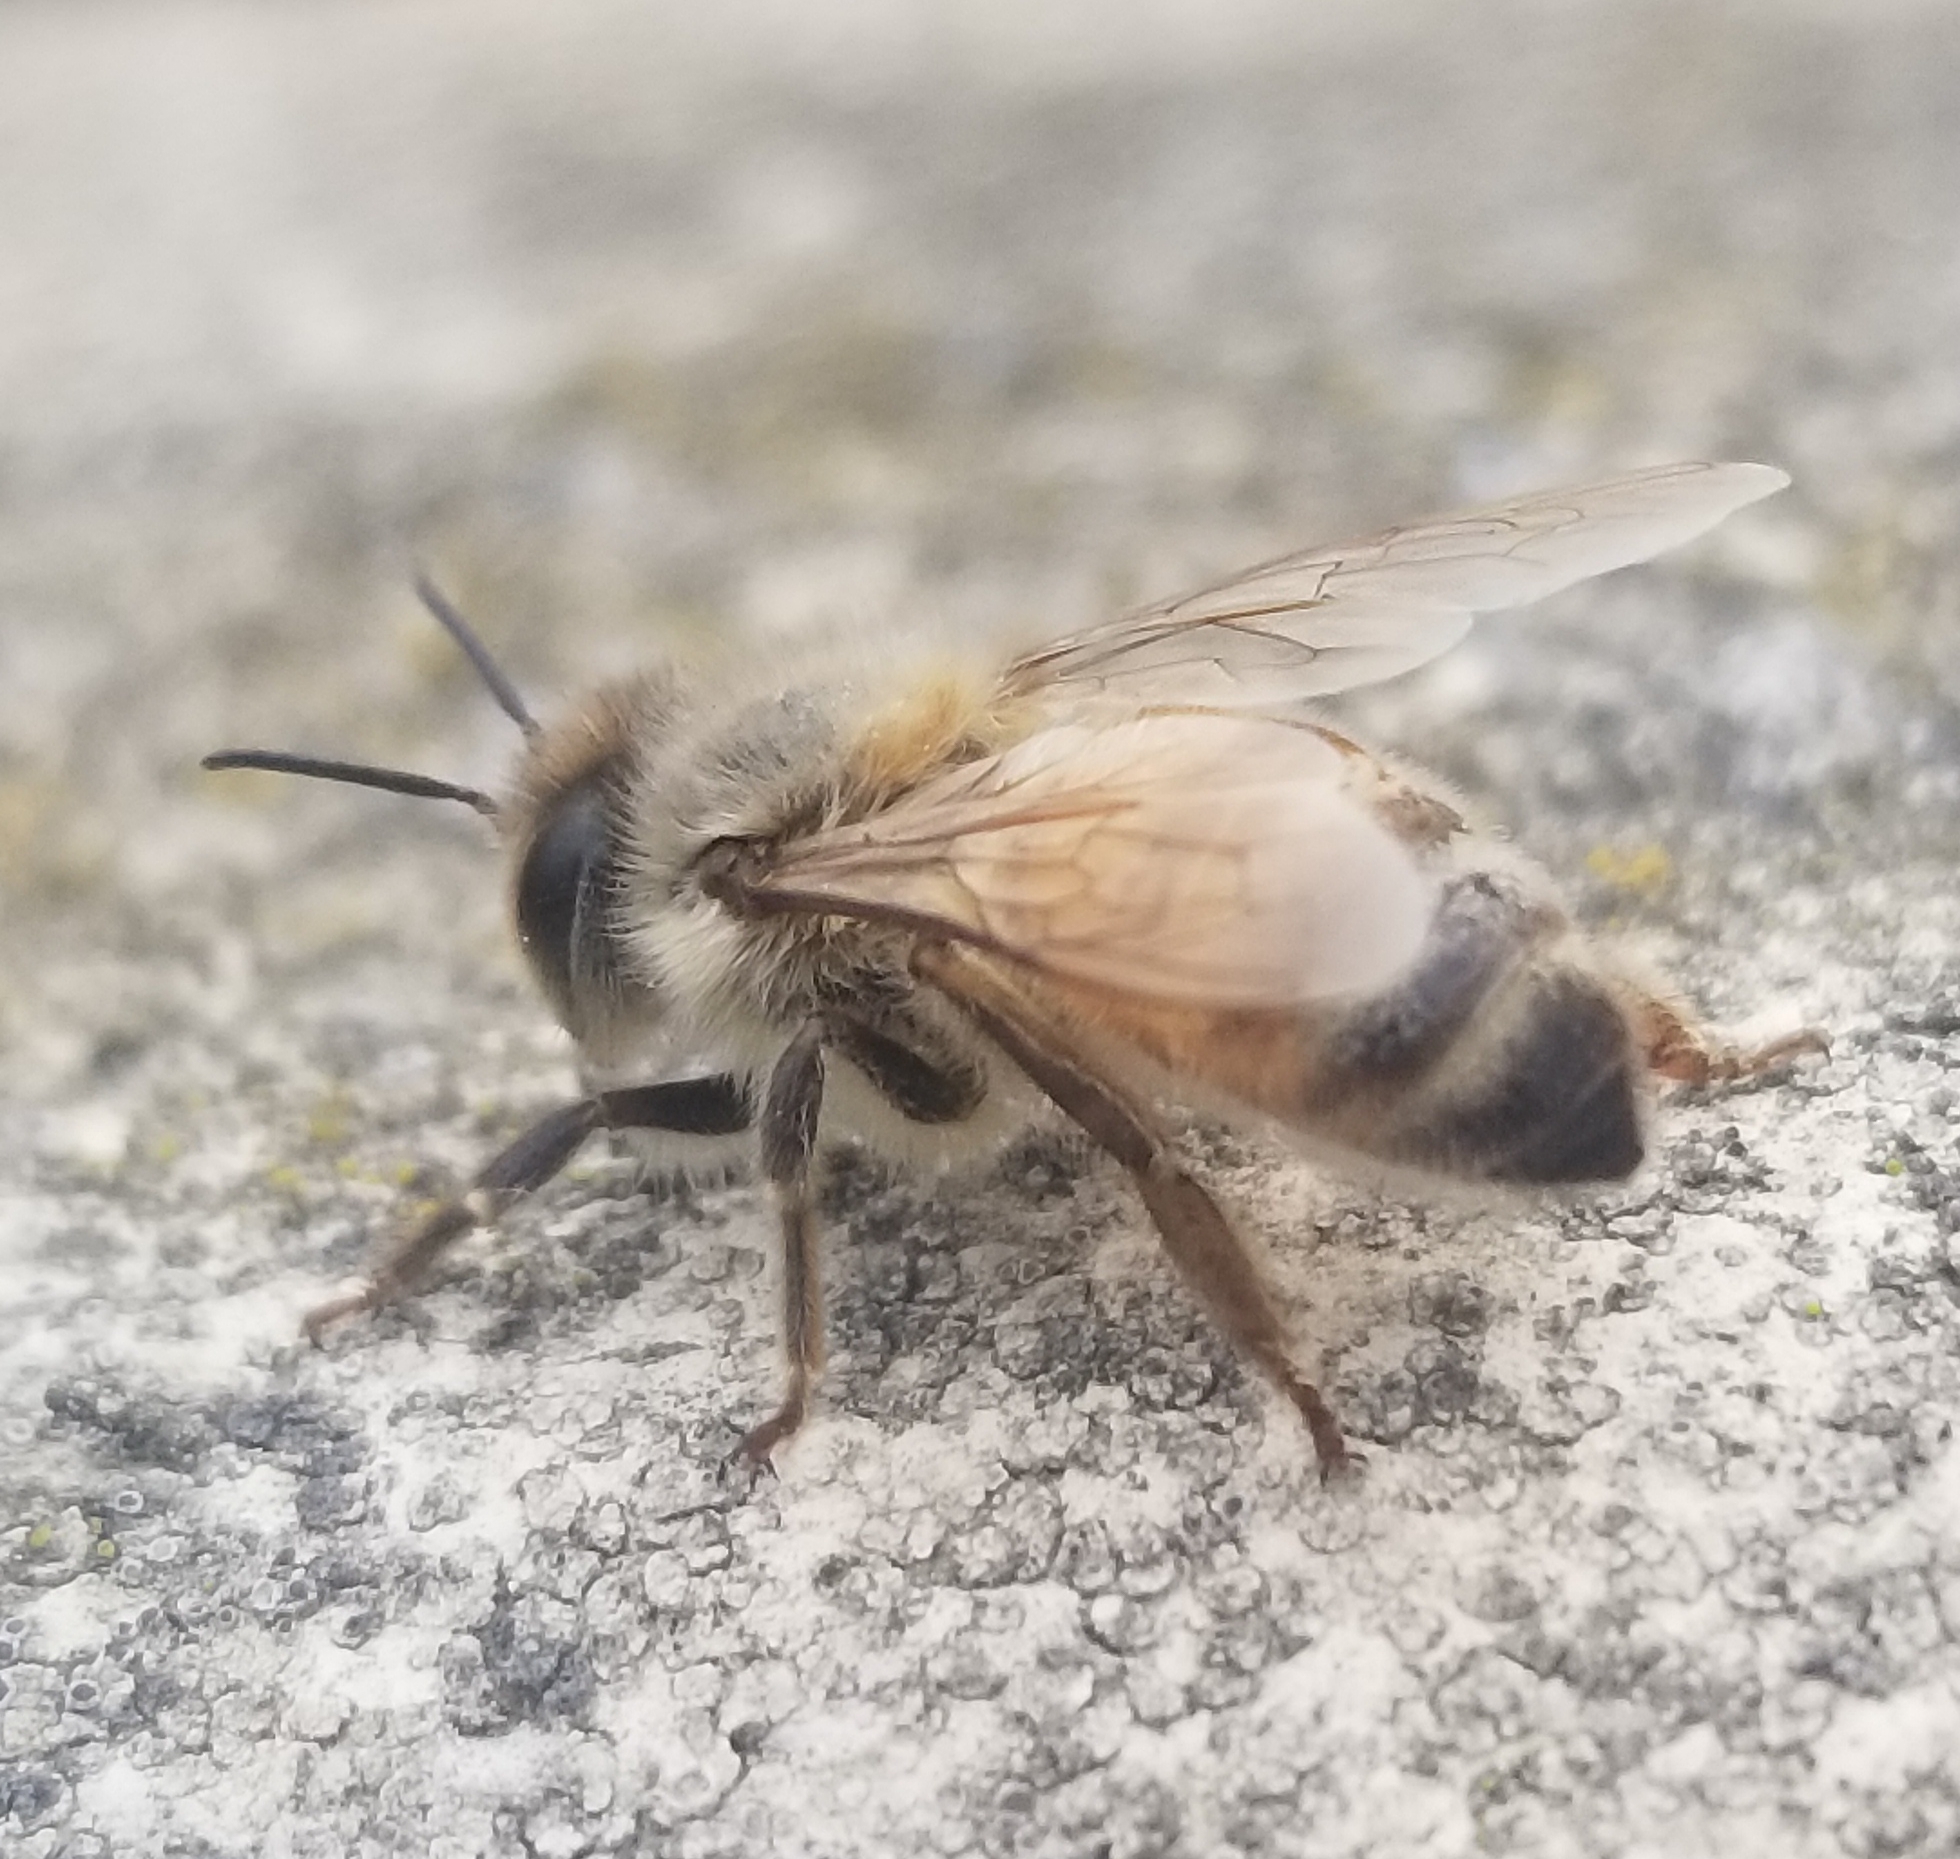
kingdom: Animalia
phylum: Arthropoda
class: Insecta
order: Hymenoptera
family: Apidae
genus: Apis
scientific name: Apis mellifera
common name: Honey bee
